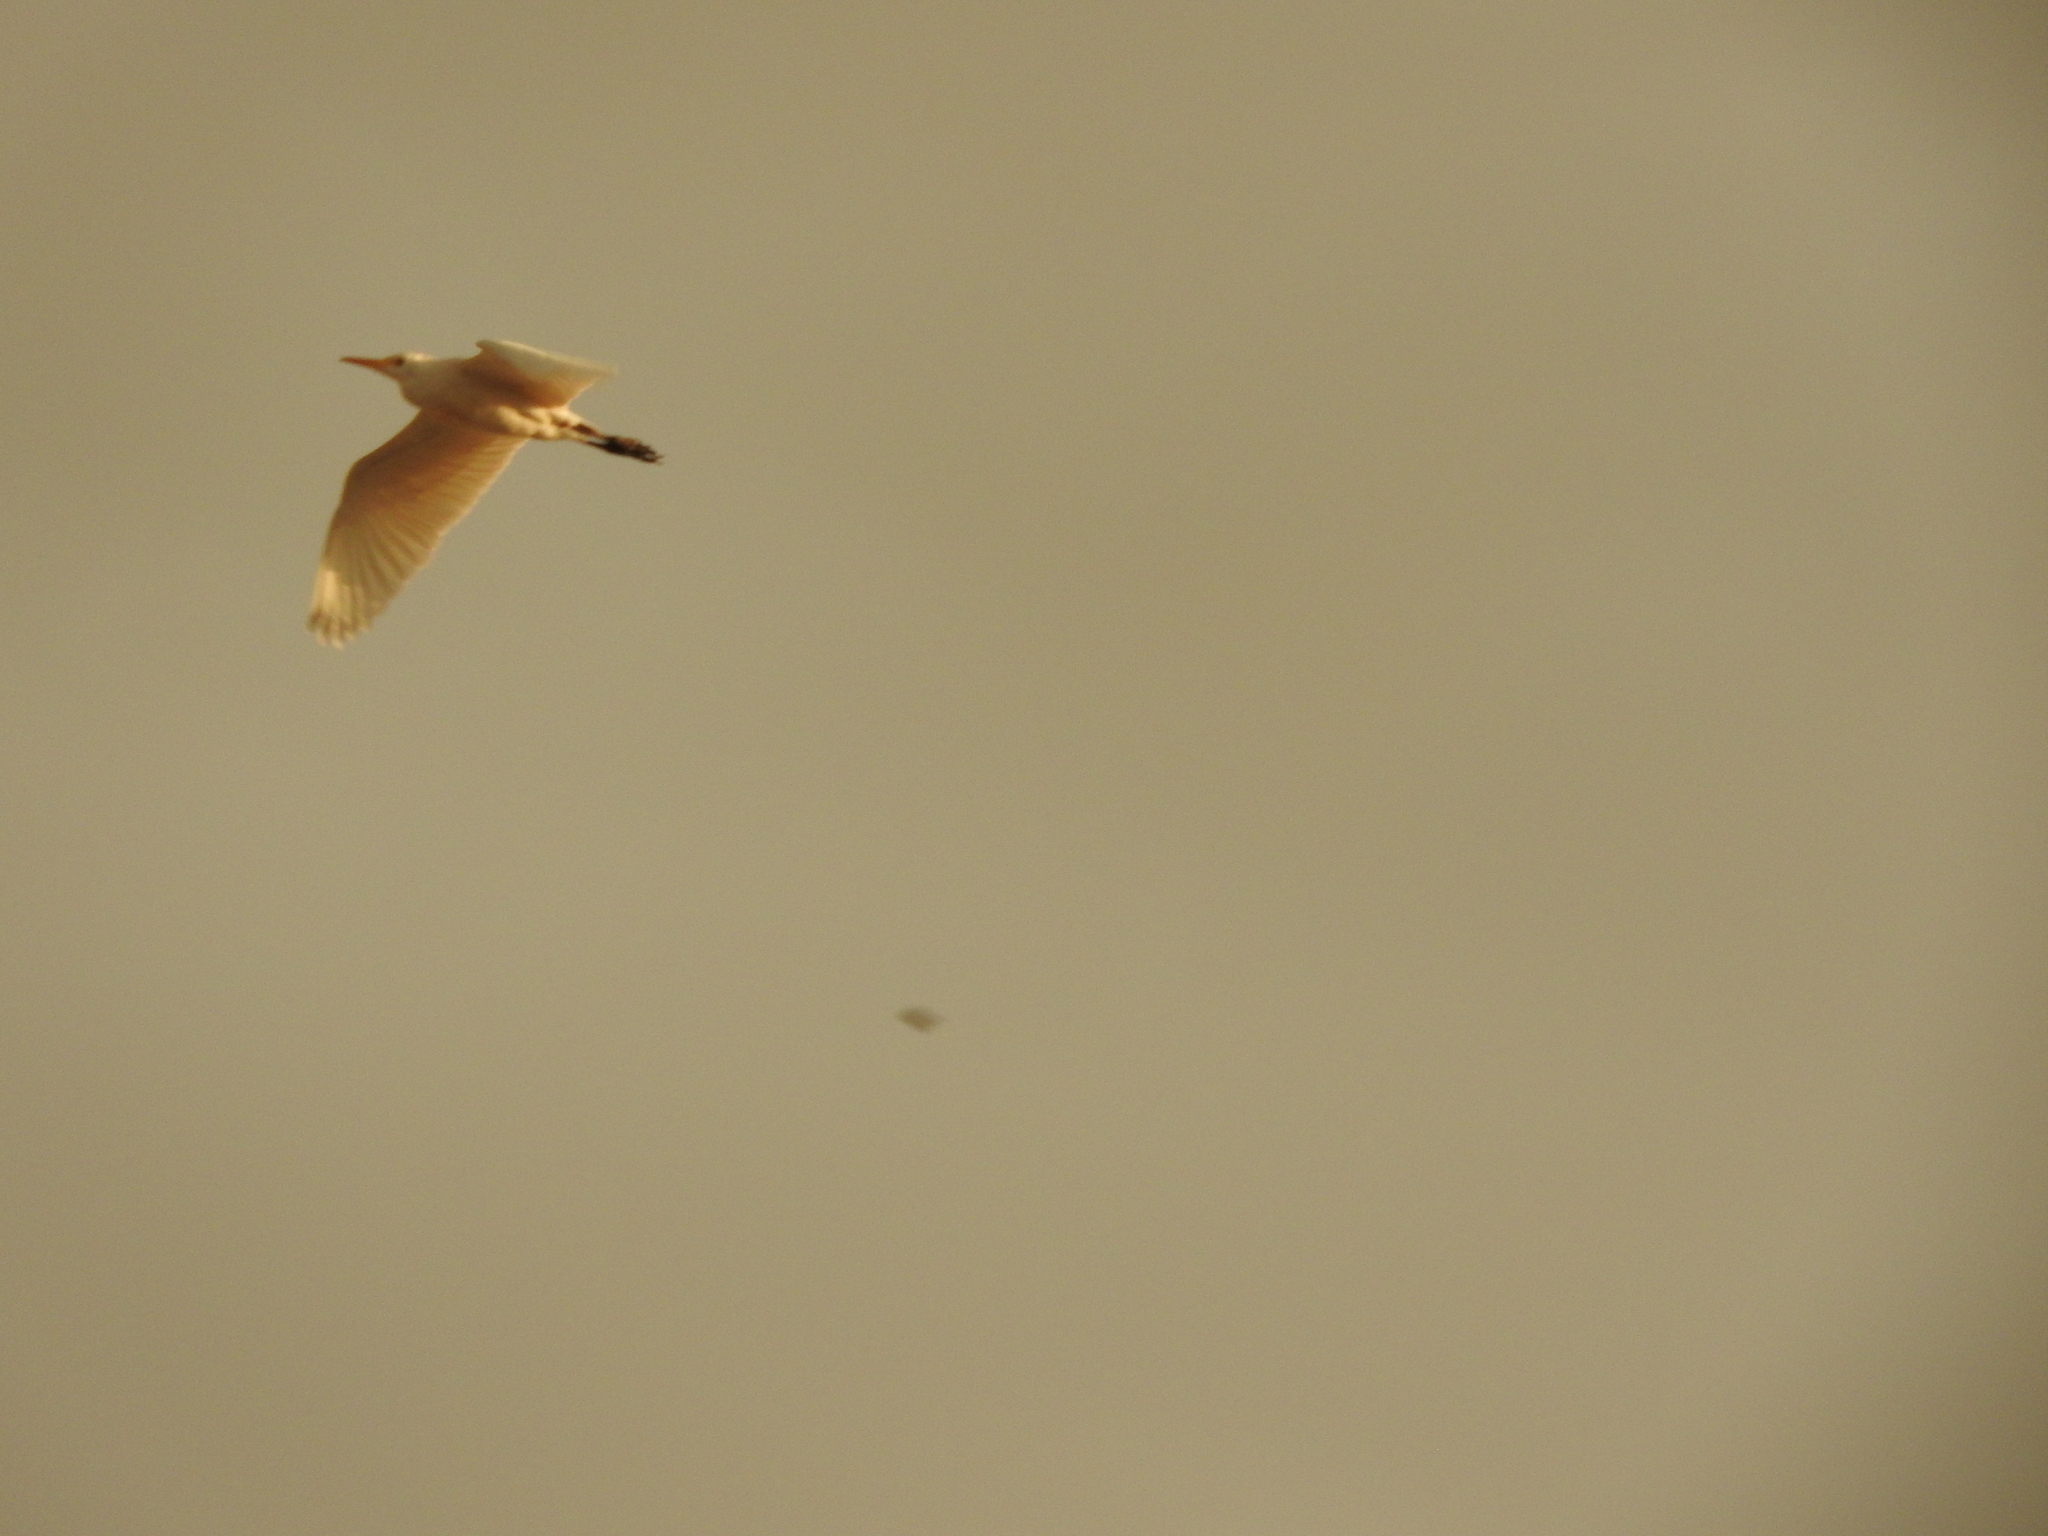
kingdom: Animalia
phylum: Chordata
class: Aves
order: Pelecaniformes
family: Ardeidae
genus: Bubulcus
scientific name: Bubulcus ibis
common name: Cattle egret
